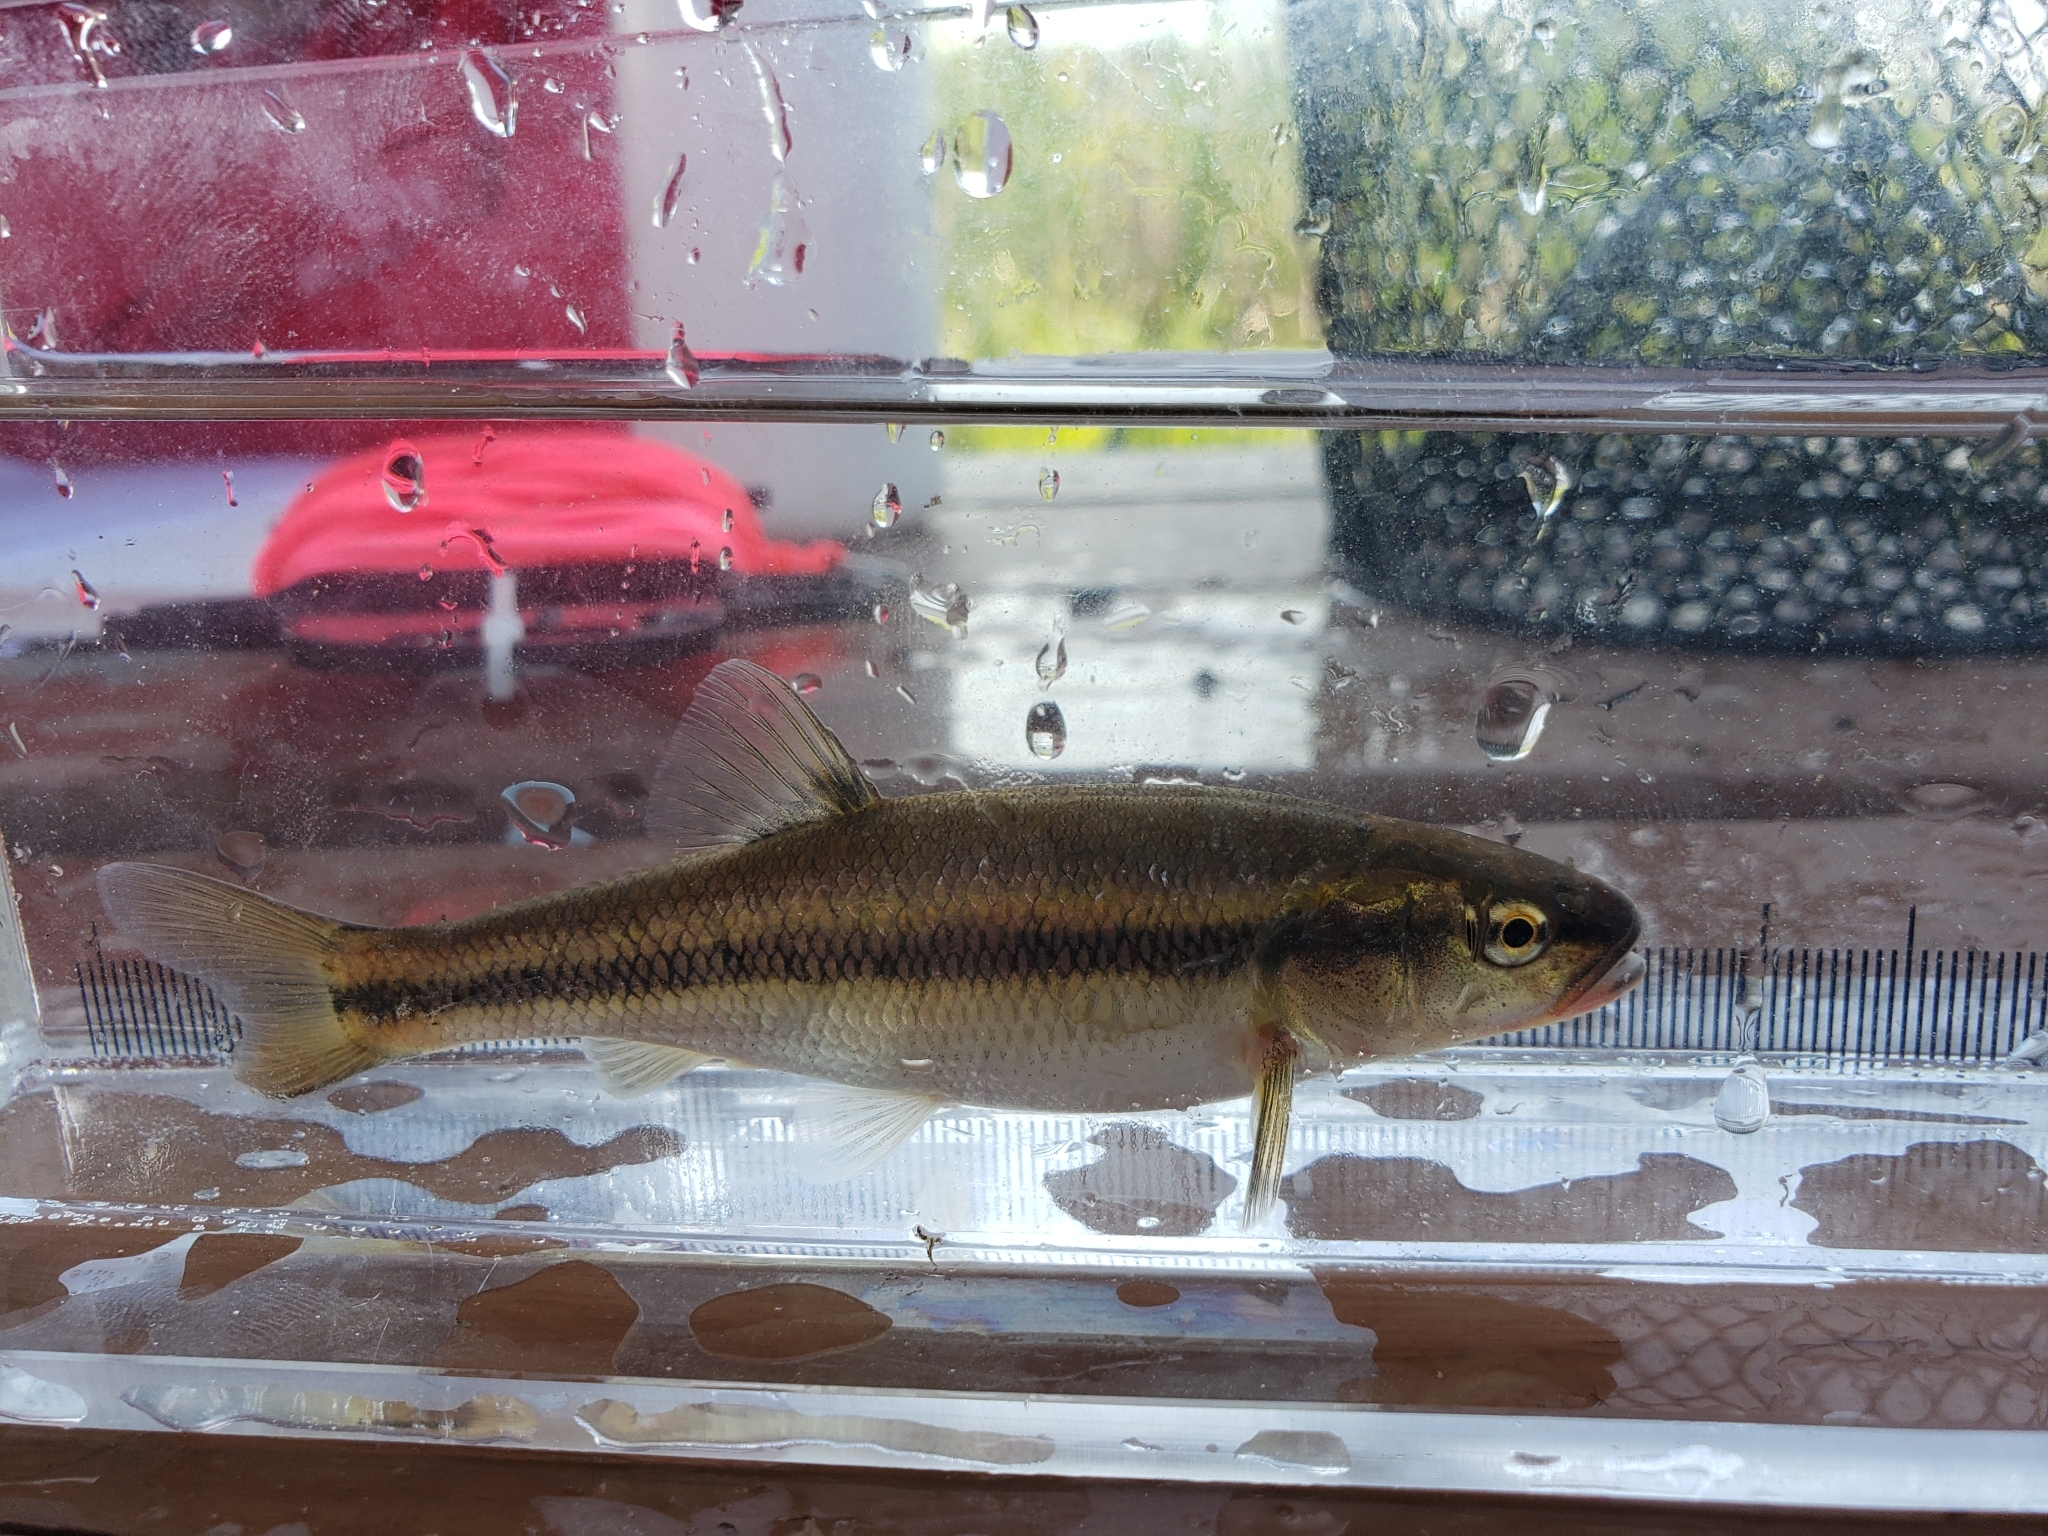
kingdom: Animalia
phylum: Chordata
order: Cypriniformes
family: Cyprinidae
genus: Semotilus
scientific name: Semotilus atromaculatus
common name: Creek chub
